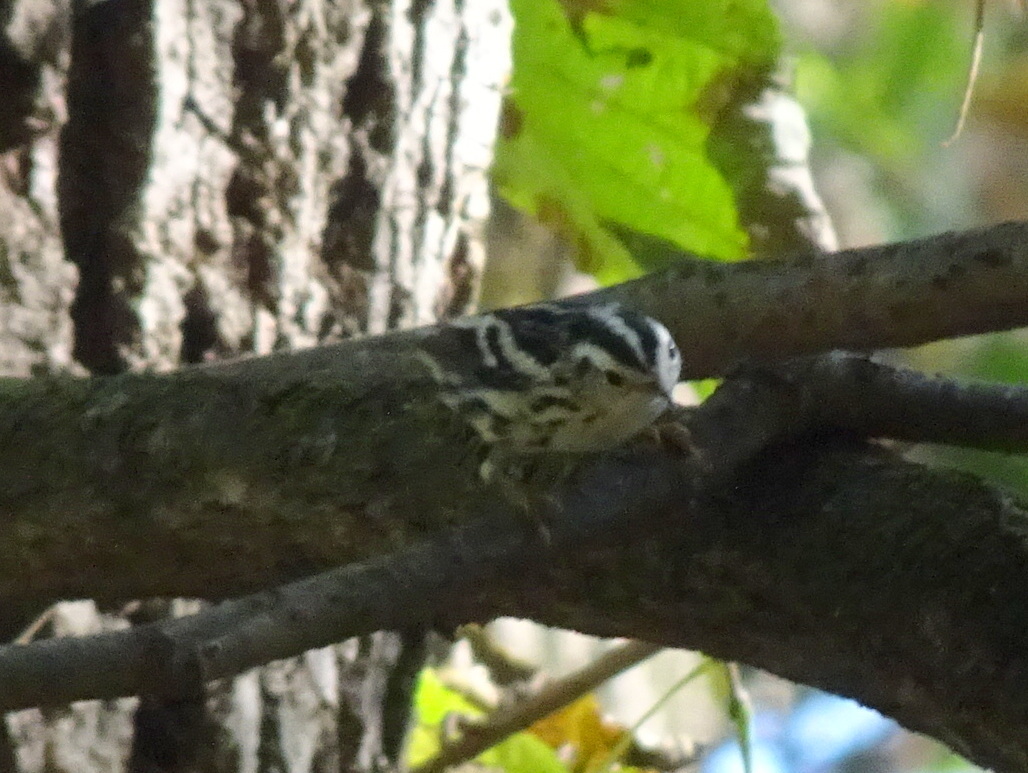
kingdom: Animalia
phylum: Chordata
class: Aves
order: Passeriformes
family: Parulidae
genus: Mniotilta
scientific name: Mniotilta varia
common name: Black-and-white warbler
